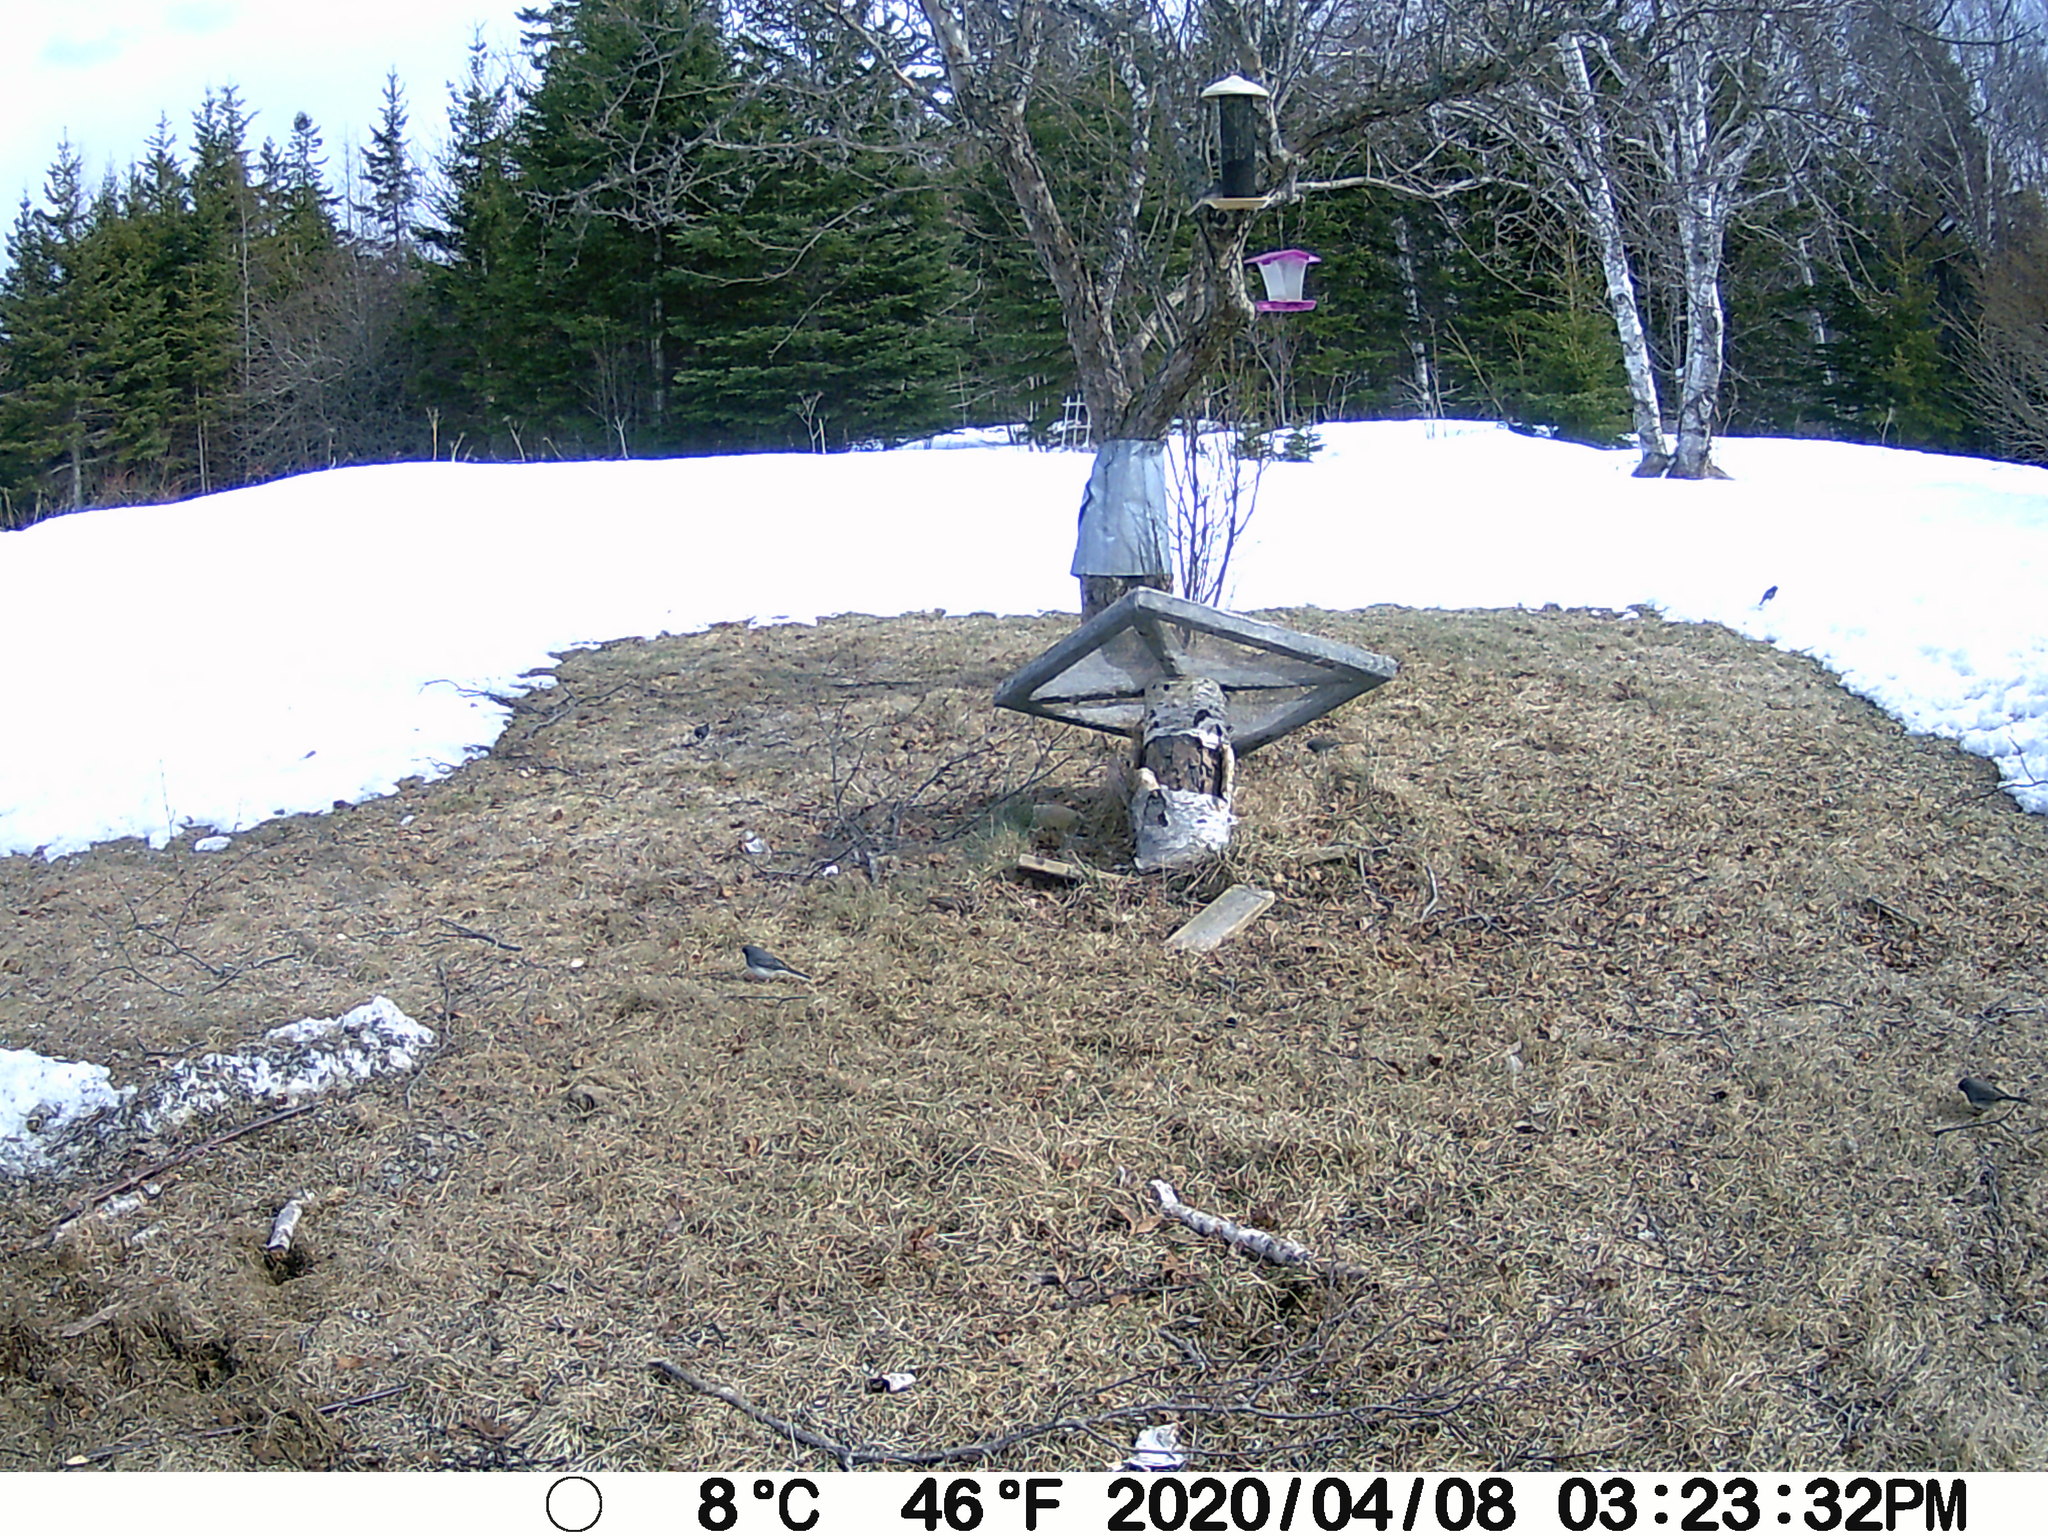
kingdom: Animalia
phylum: Chordata
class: Aves
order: Passeriformes
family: Passerellidae
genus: Junco
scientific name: Junco hyemalis
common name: Dark-eyed junco
